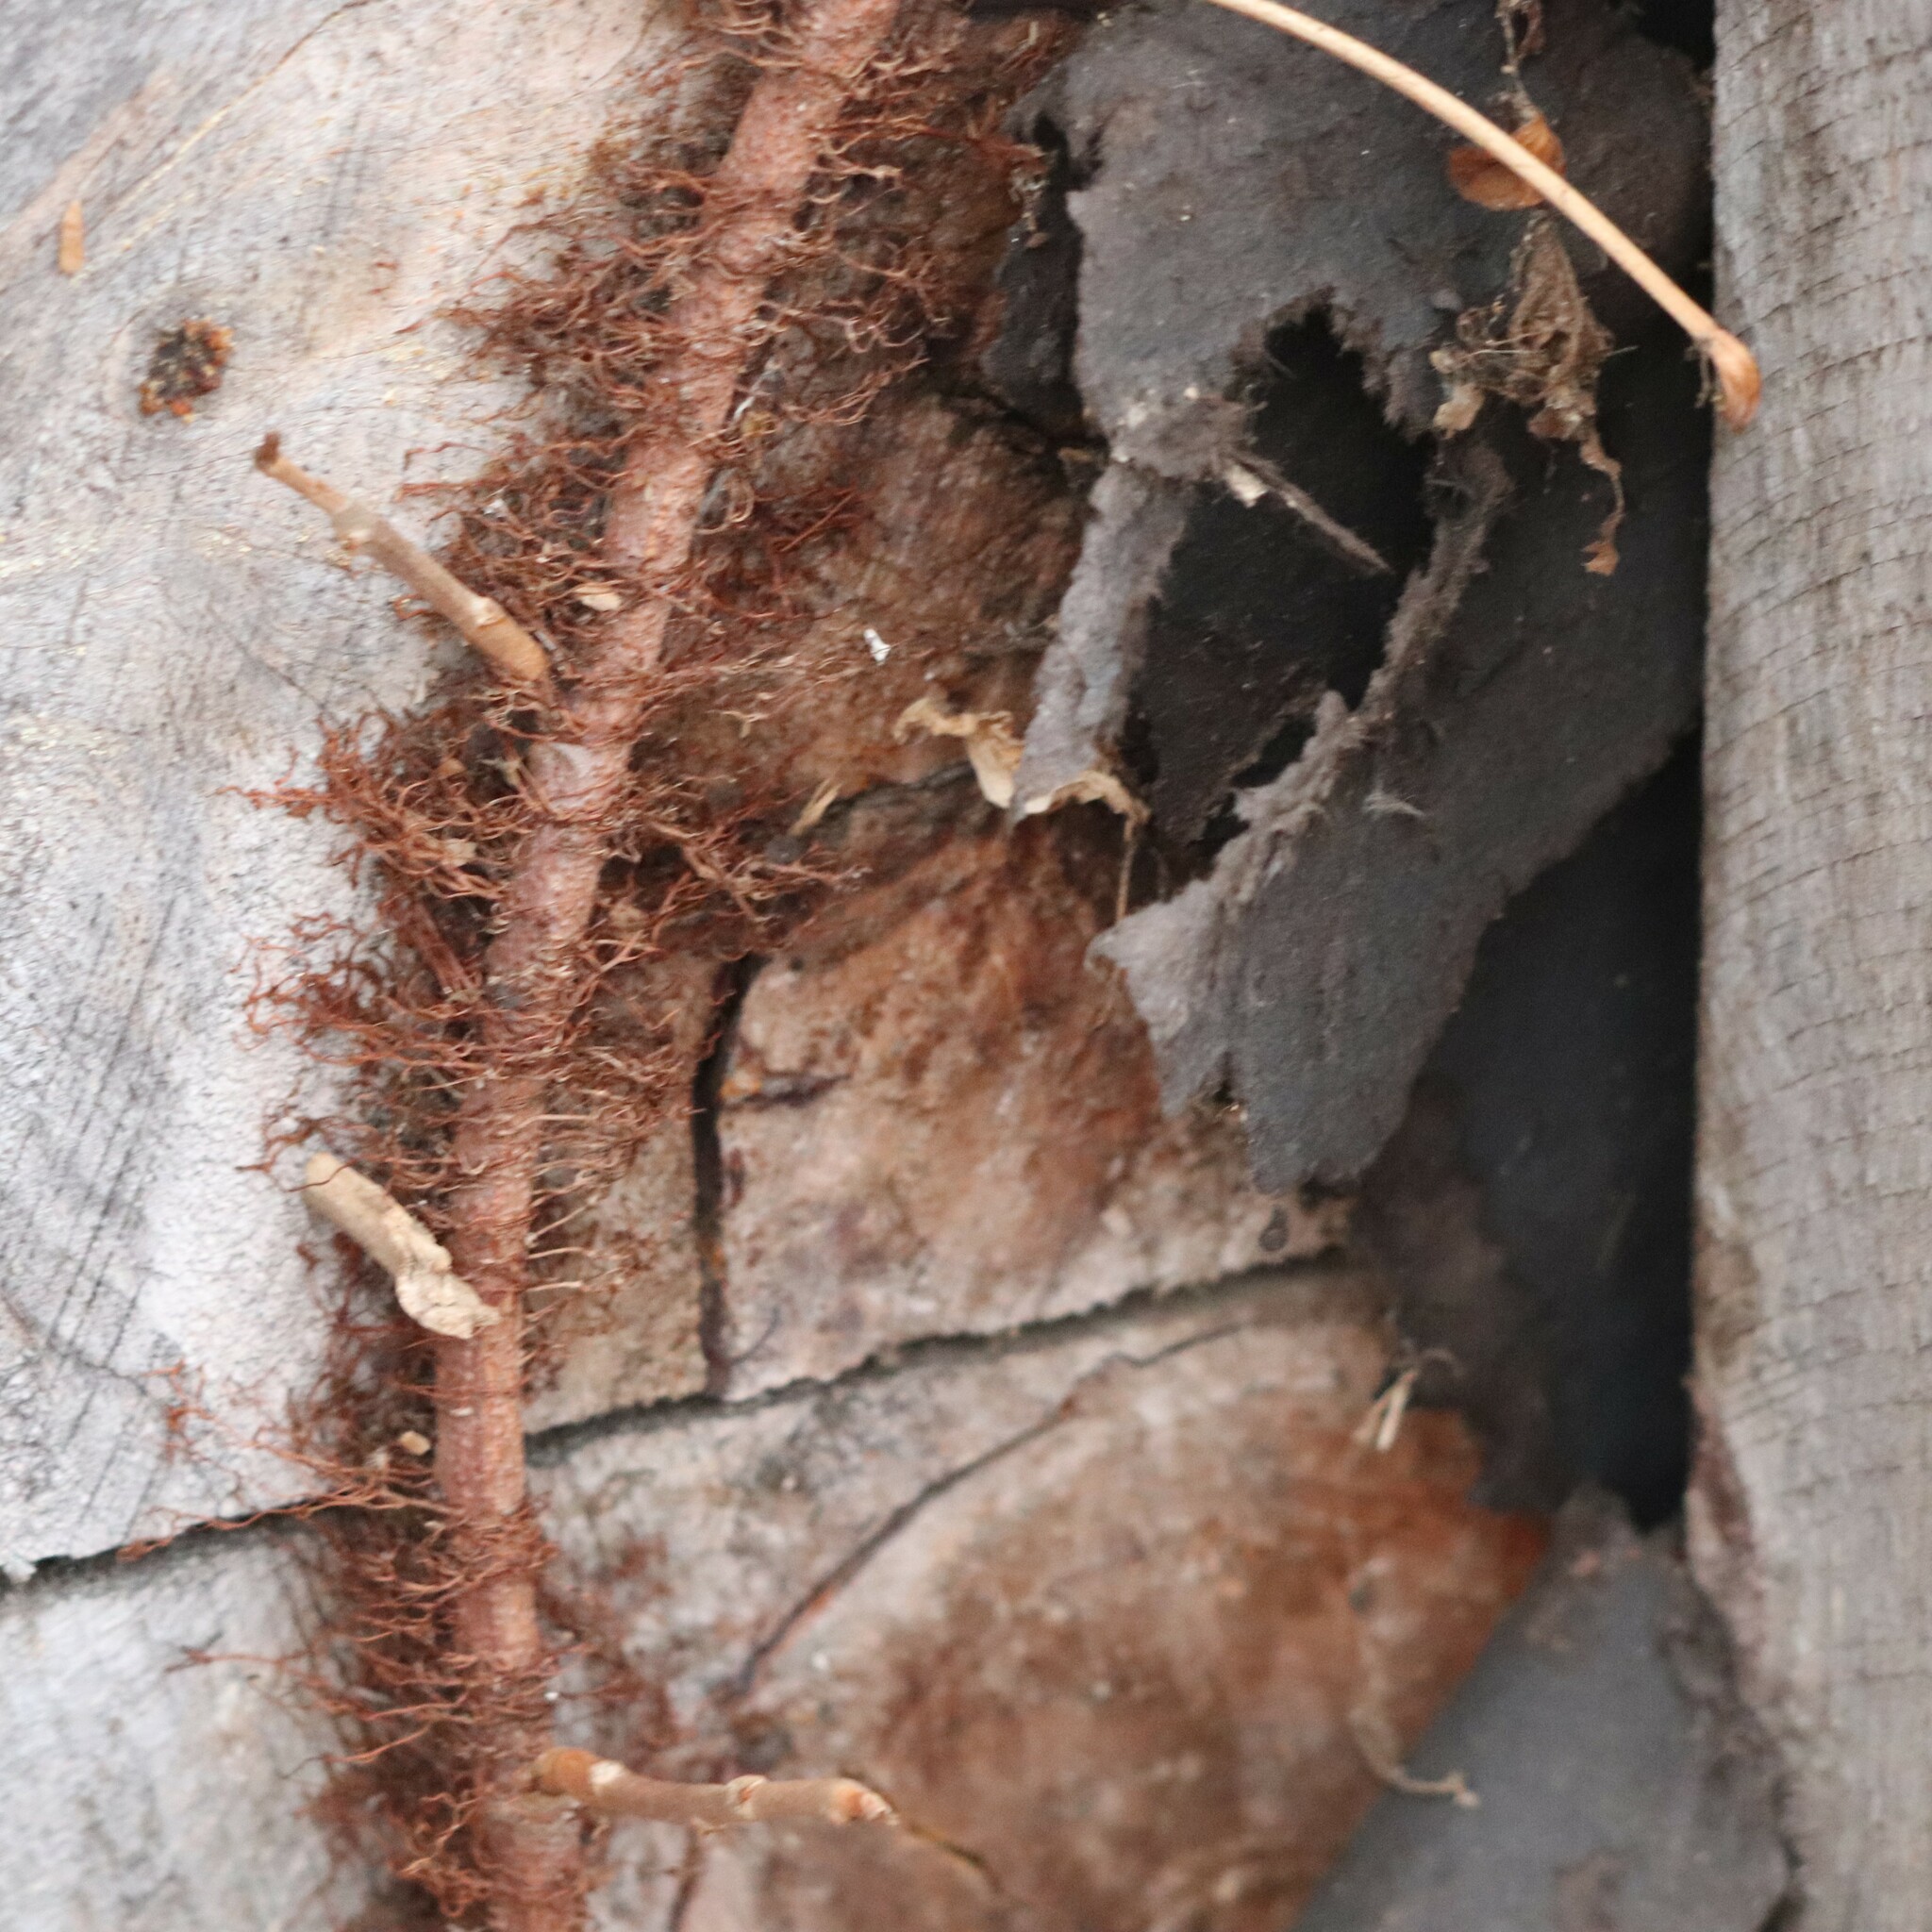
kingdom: Plantae
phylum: Tracheophyta
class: Magnoliopsida
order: Sapindales
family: Anacardiaceae
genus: Toxicodendron
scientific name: Toxicodendron radicans
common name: Poison ivy
